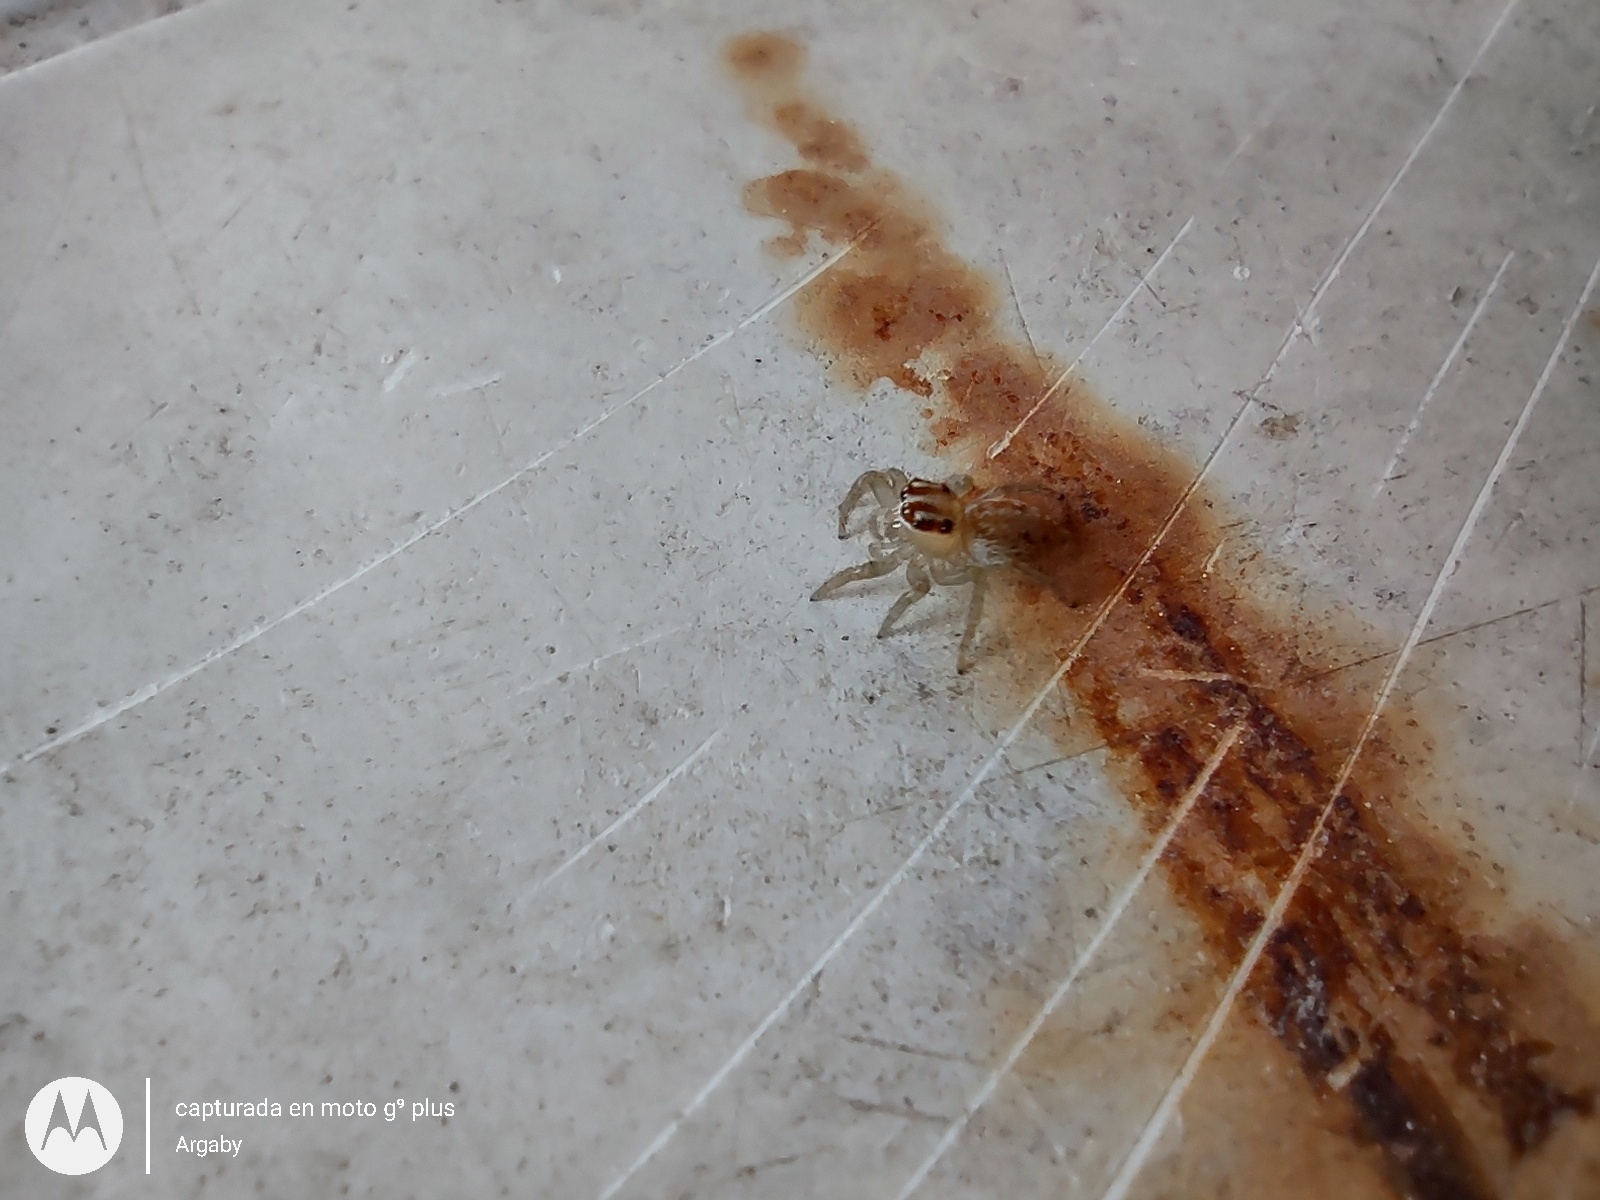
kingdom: Animalia
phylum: Arthropoda
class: Arachnida
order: Araneae
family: Salticidae
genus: Chira
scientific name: Chira gounellei
